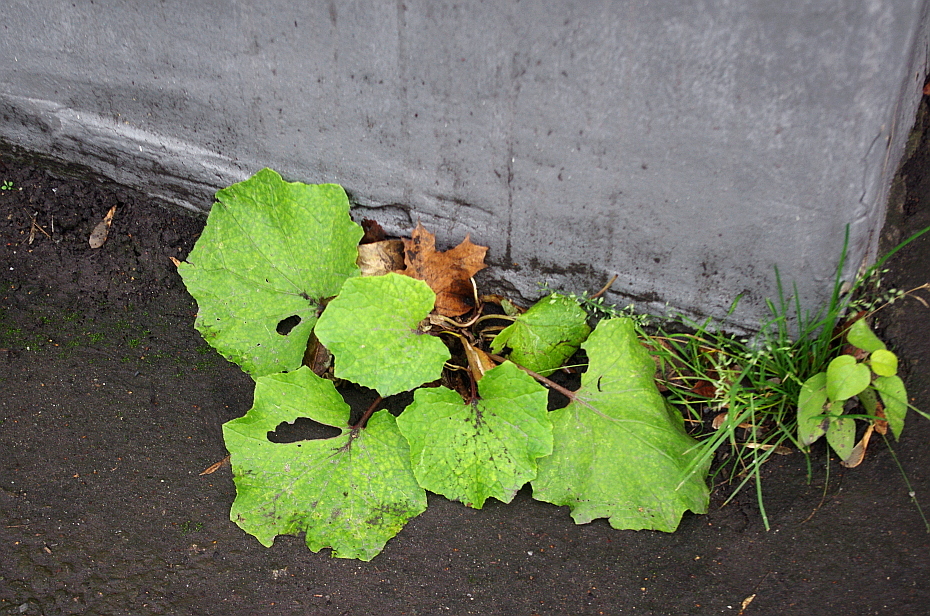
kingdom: Plantae
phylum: Tracheophyta
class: Magnoliopsida
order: Asterales
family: Asteraceae
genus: Tussilago
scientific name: Tussilago farfara
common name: Coltsfoot
